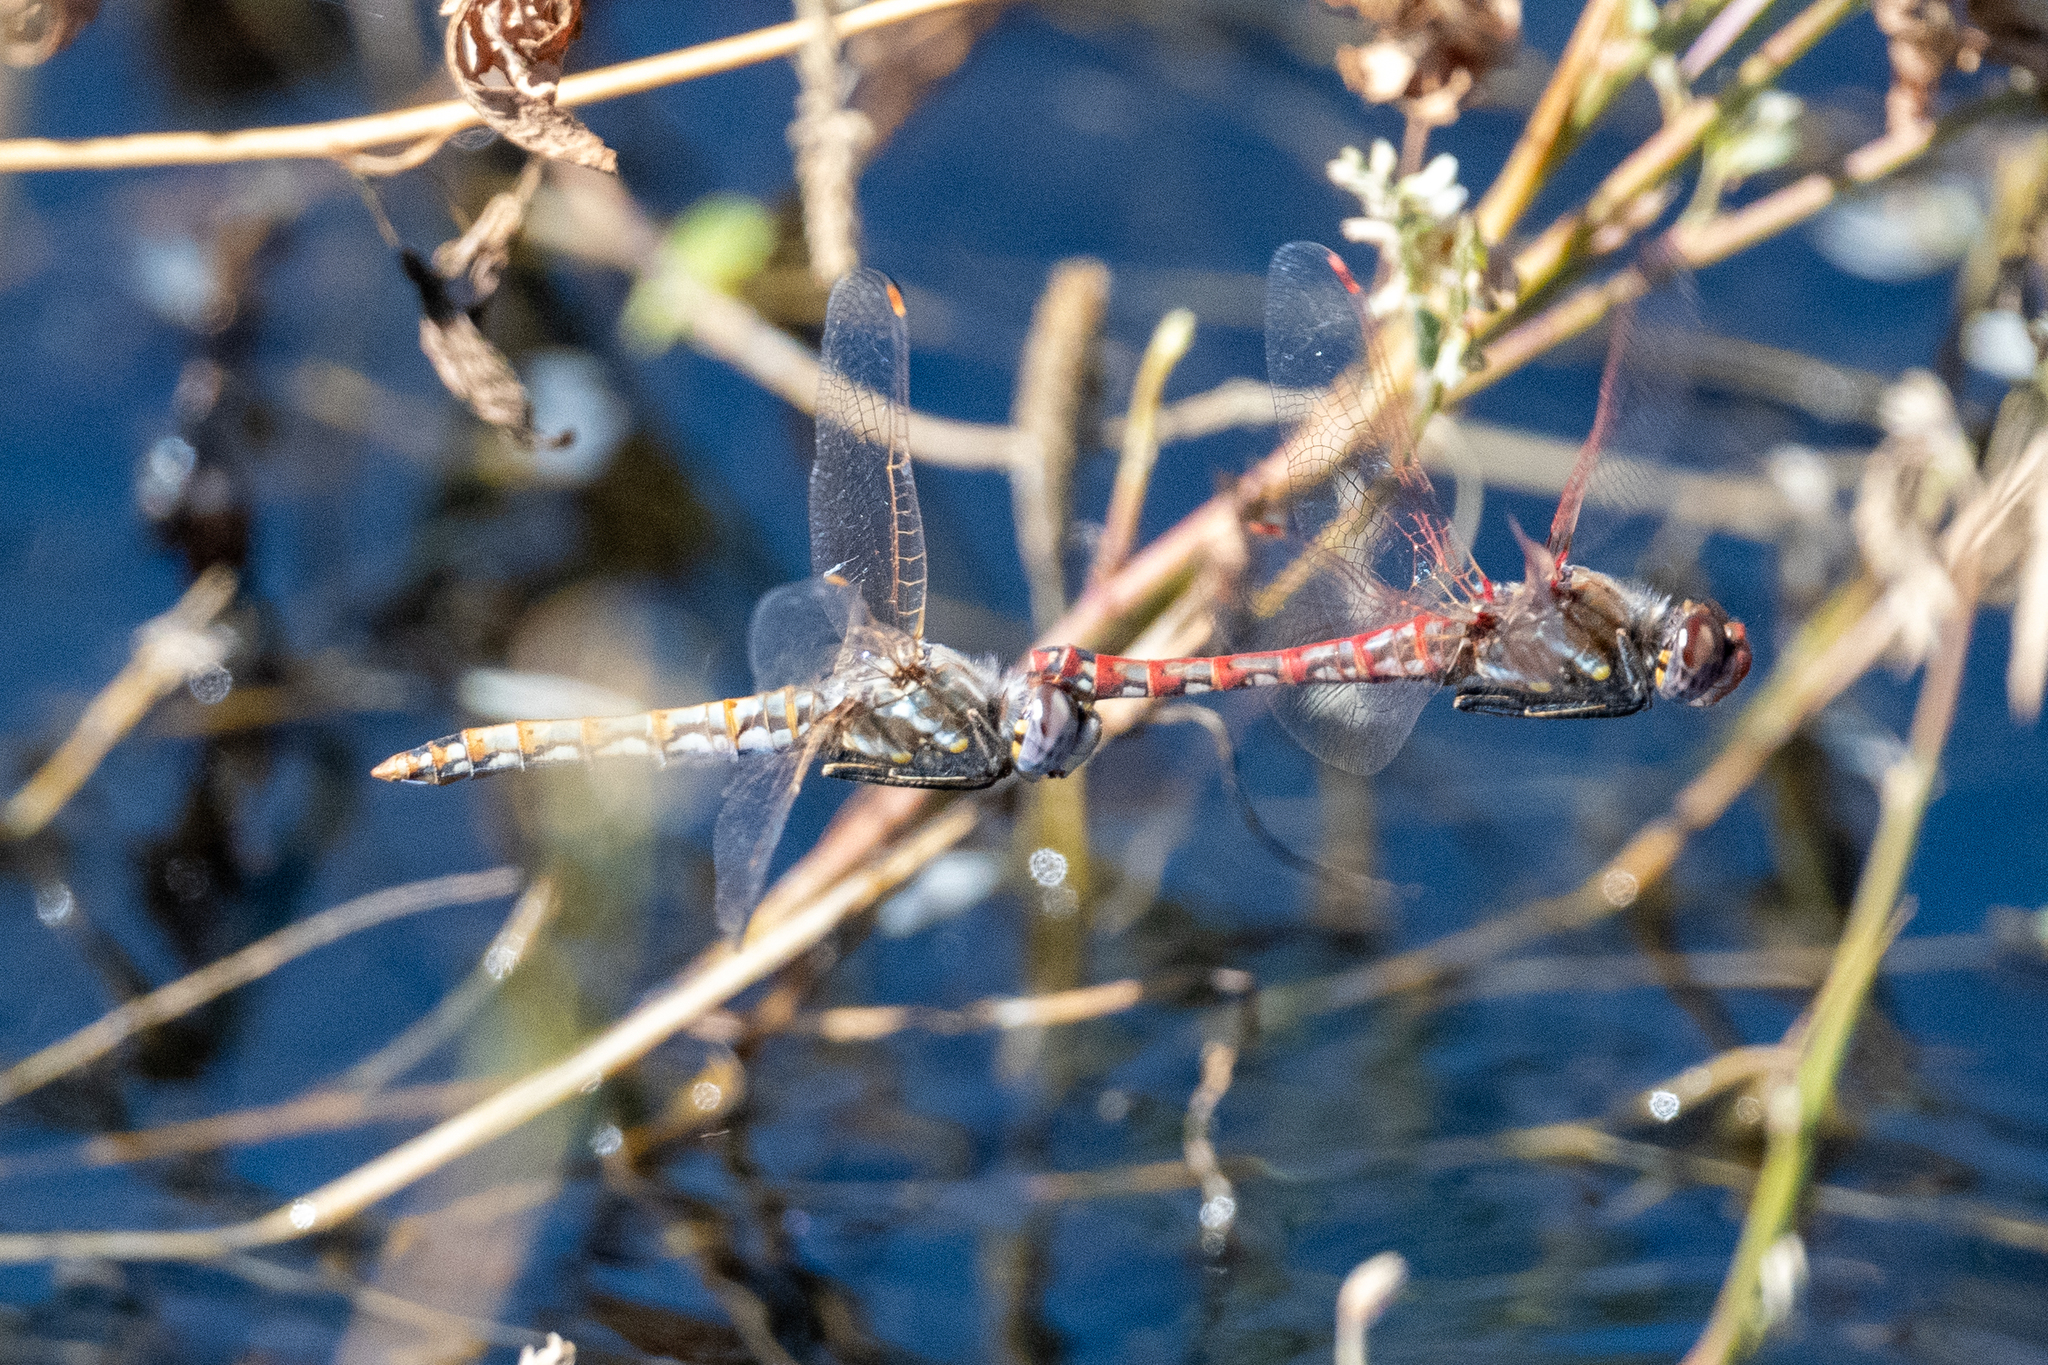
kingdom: Animalia
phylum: Arthropoda
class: Insecta
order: Odonata
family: Libellulidae
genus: Sympetrum
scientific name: Sympetrum corruptum
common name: Variegated meadowhawk
